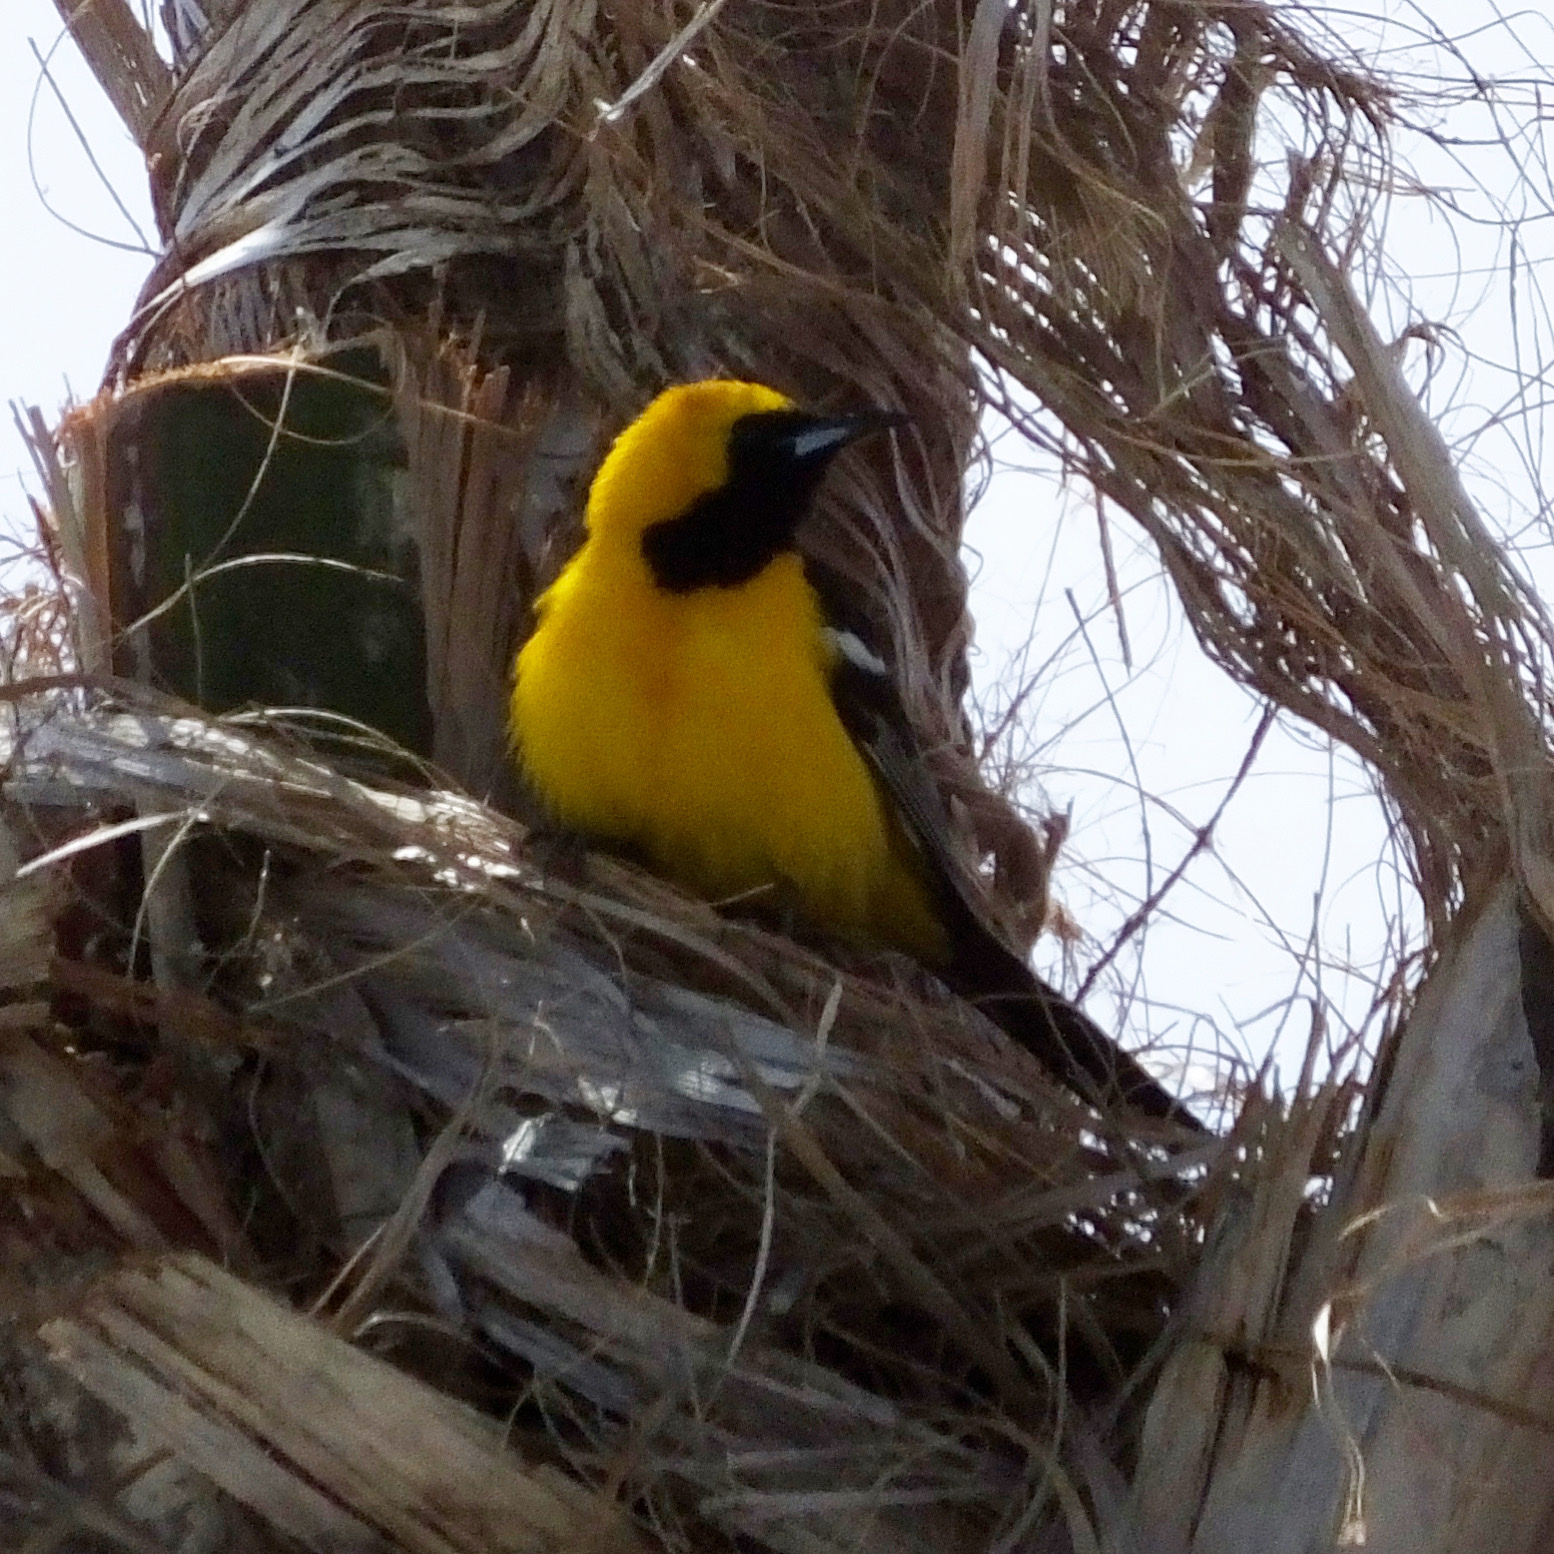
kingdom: Animalia
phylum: Chordata
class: Aves
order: Passeriformes
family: Icteridae
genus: Icterus
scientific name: Icterus cucullatus
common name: Hooded oriole
